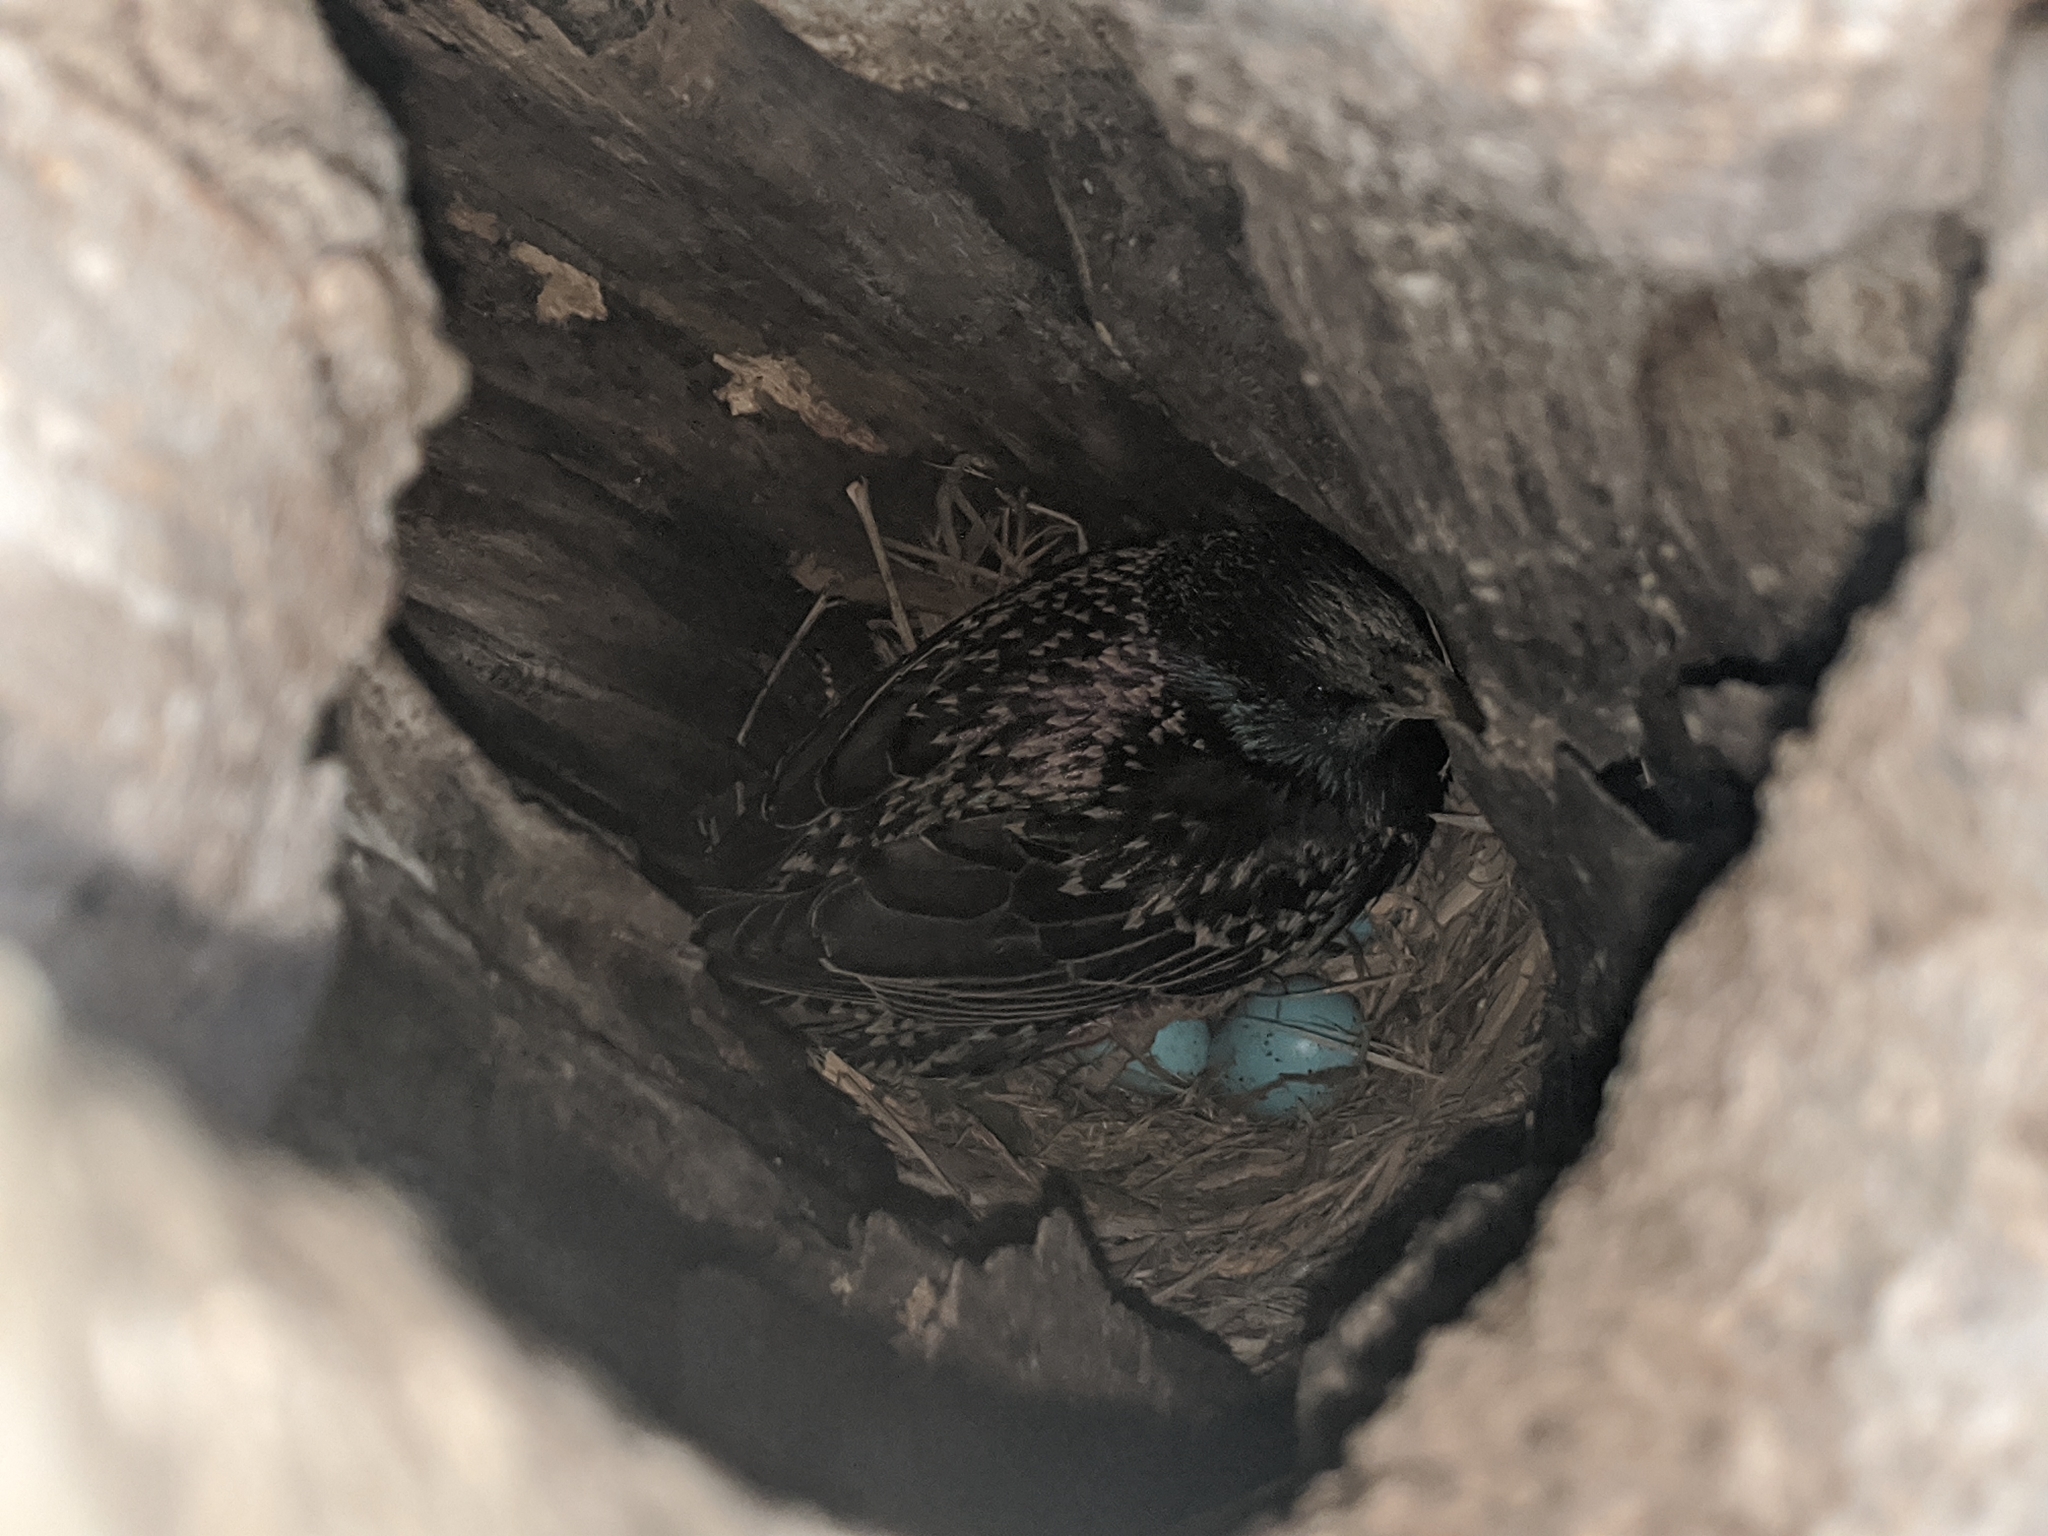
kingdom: Animalia
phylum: Chordata
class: Aves
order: Passeriformes
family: Sturnidae
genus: Sturnus
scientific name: Sturnus vulgaris
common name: Common starling
